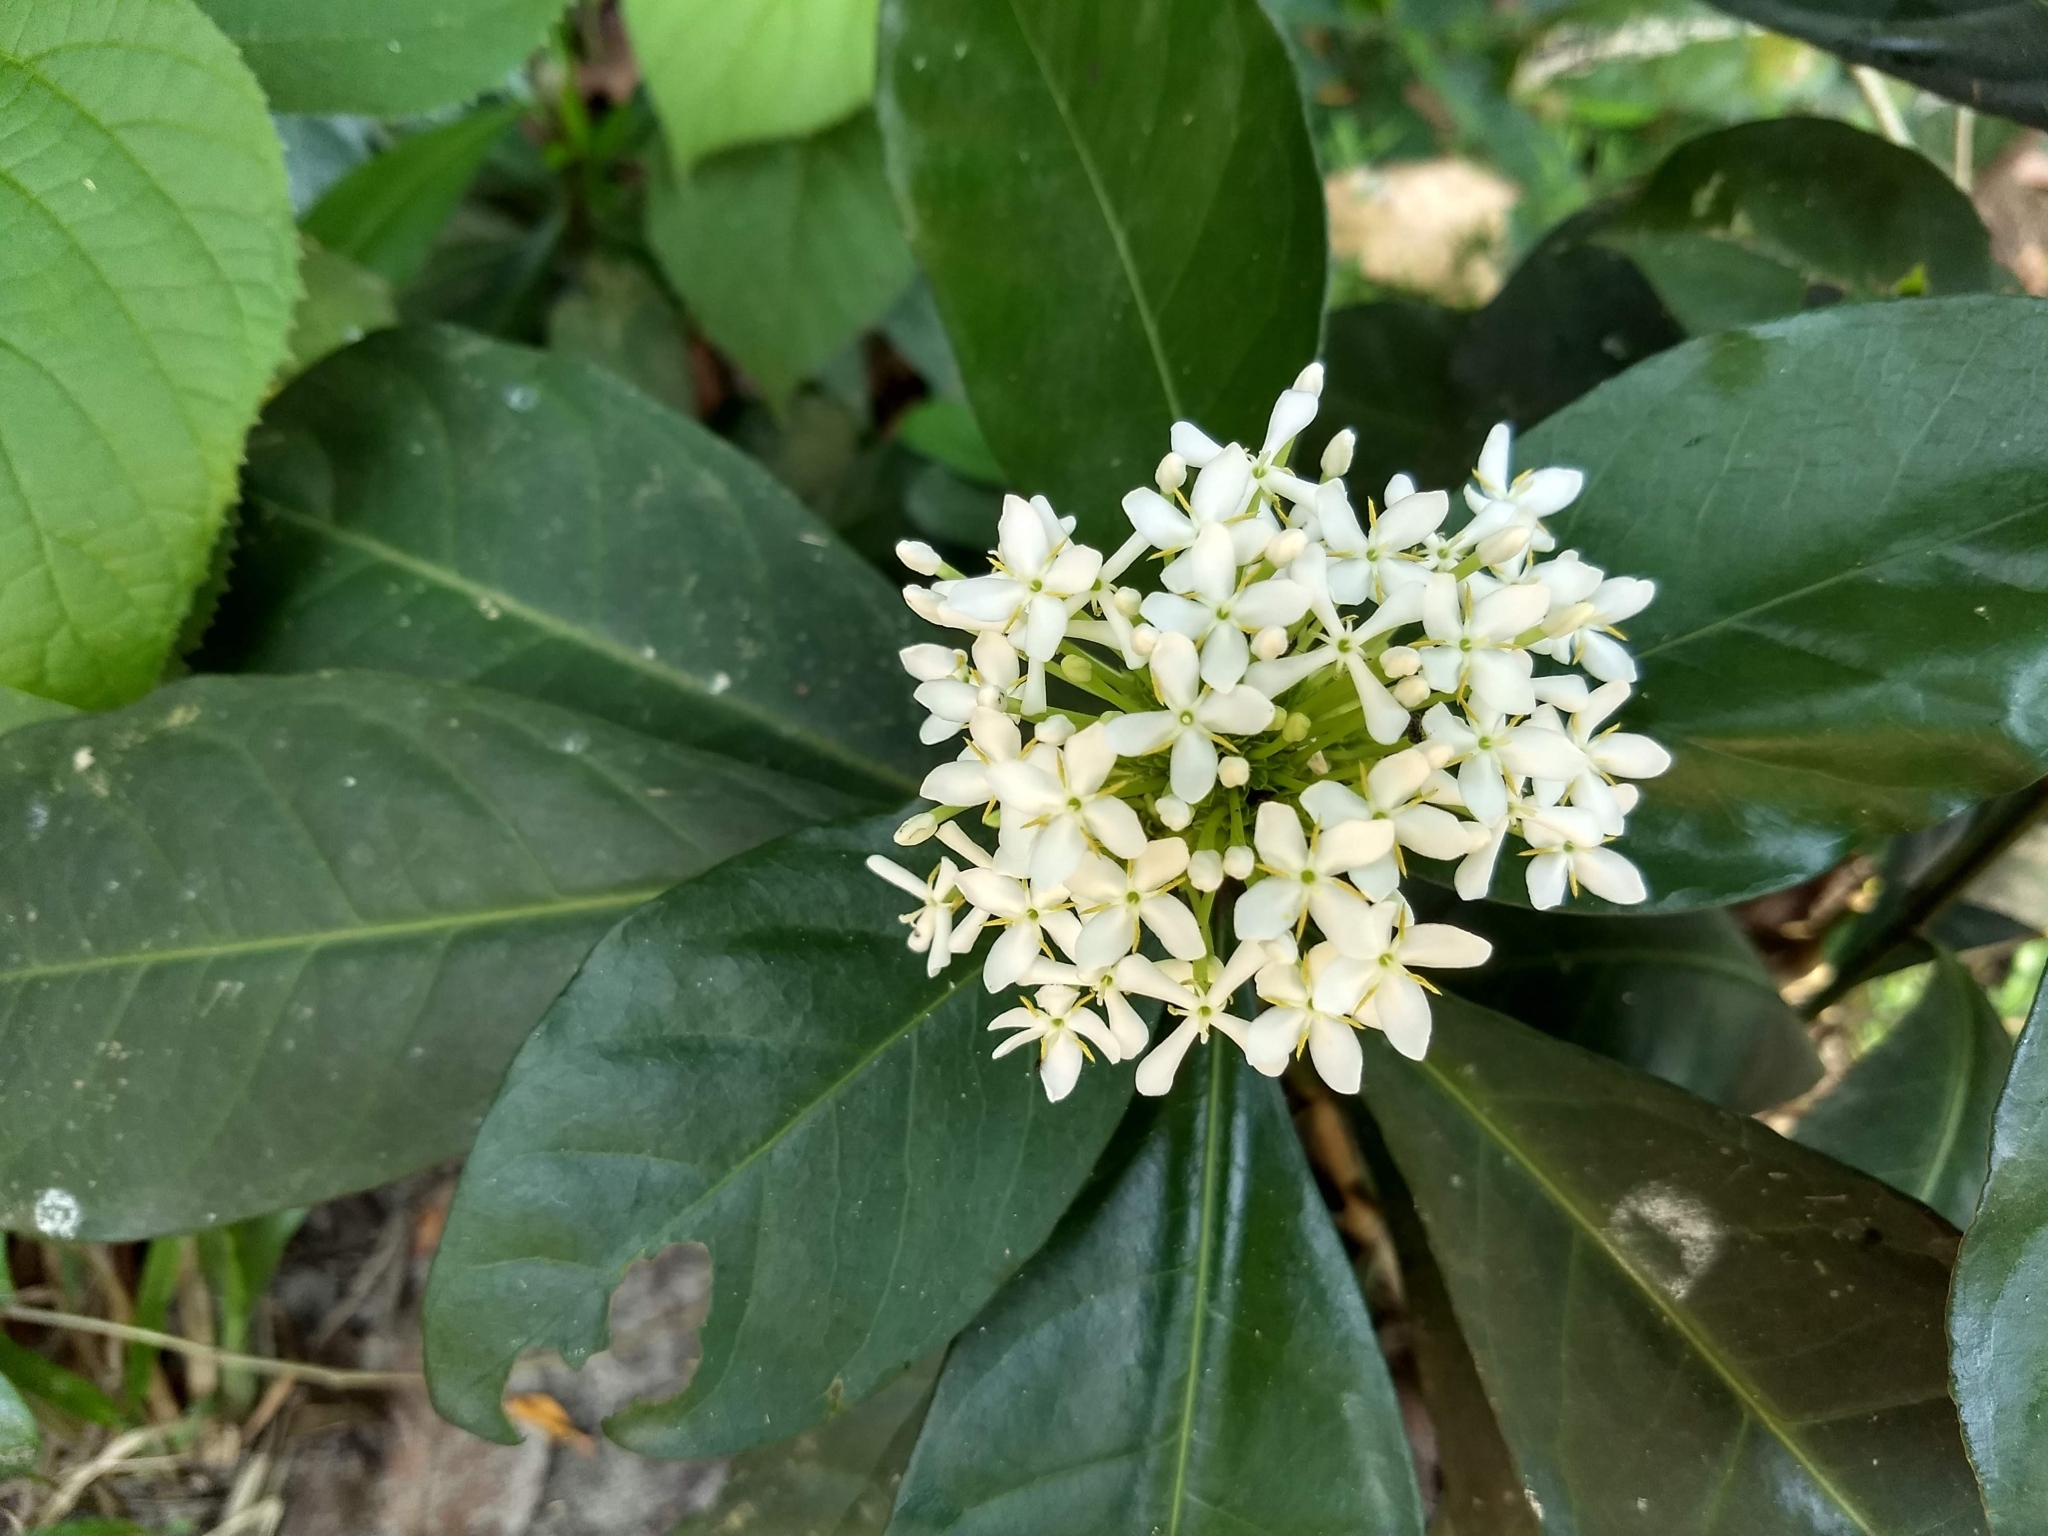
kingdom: Plantae
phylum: Tracheophyta
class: Magnoliopsida
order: Gentianales
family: Rubiaceae
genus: Ixora
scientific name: Ixora finlaysoniana
